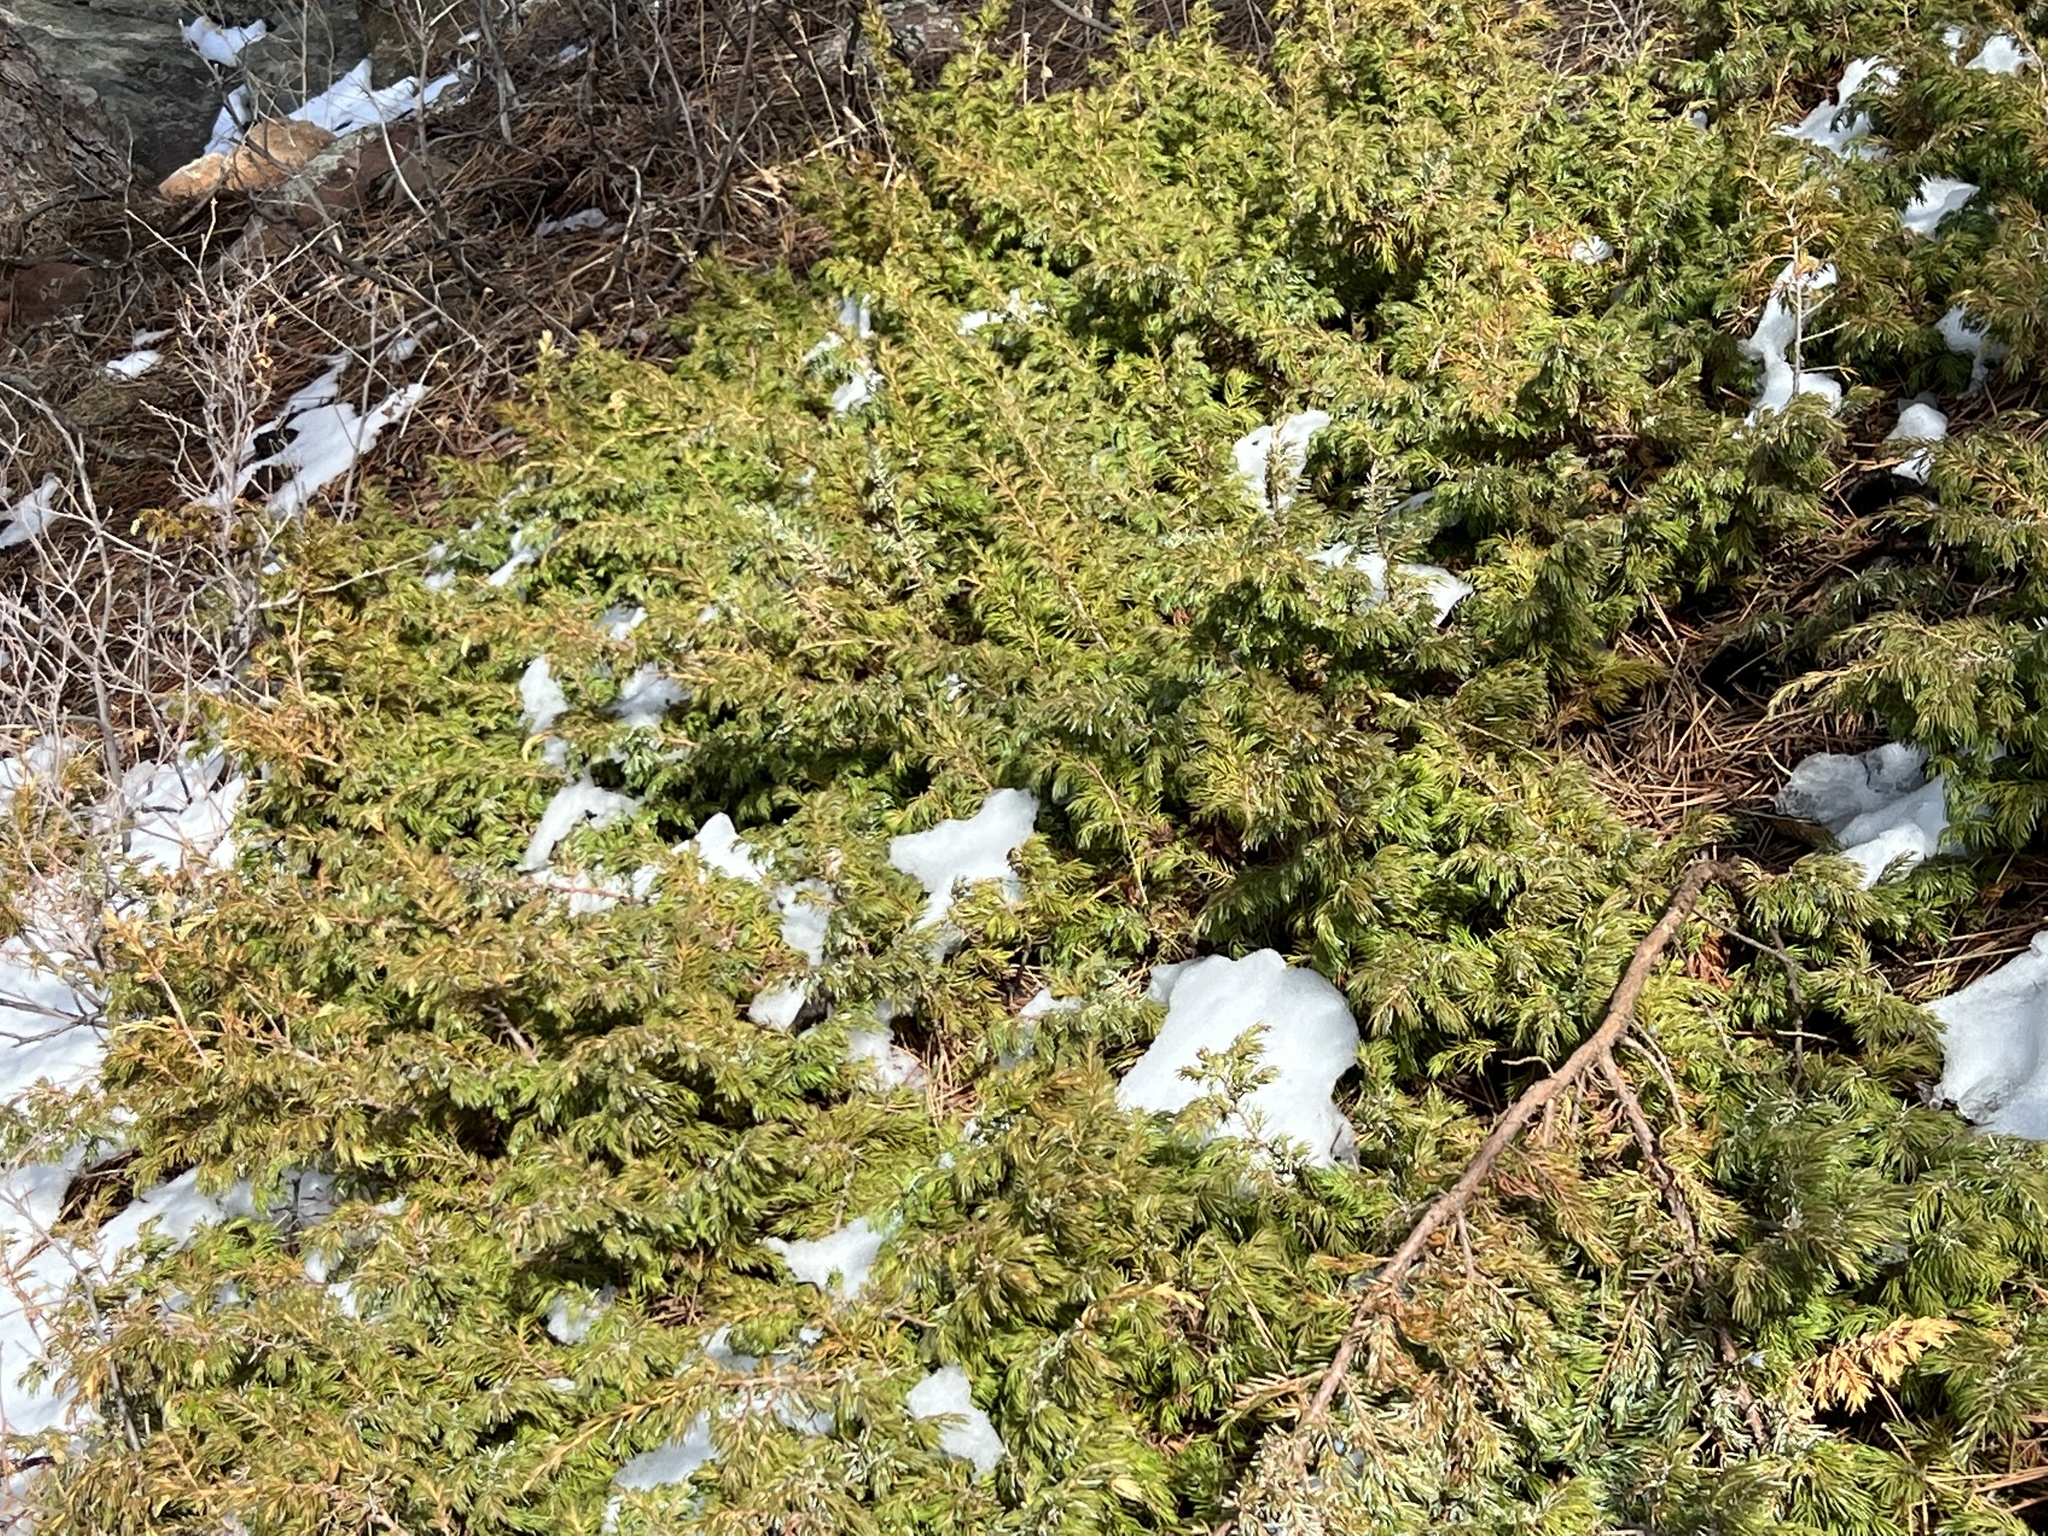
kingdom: Plantae
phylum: Tracheophyta
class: Pinopsida
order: Pinales
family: Cupressaceae
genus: Juniperus
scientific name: Juniperus communis
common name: Common juniper
